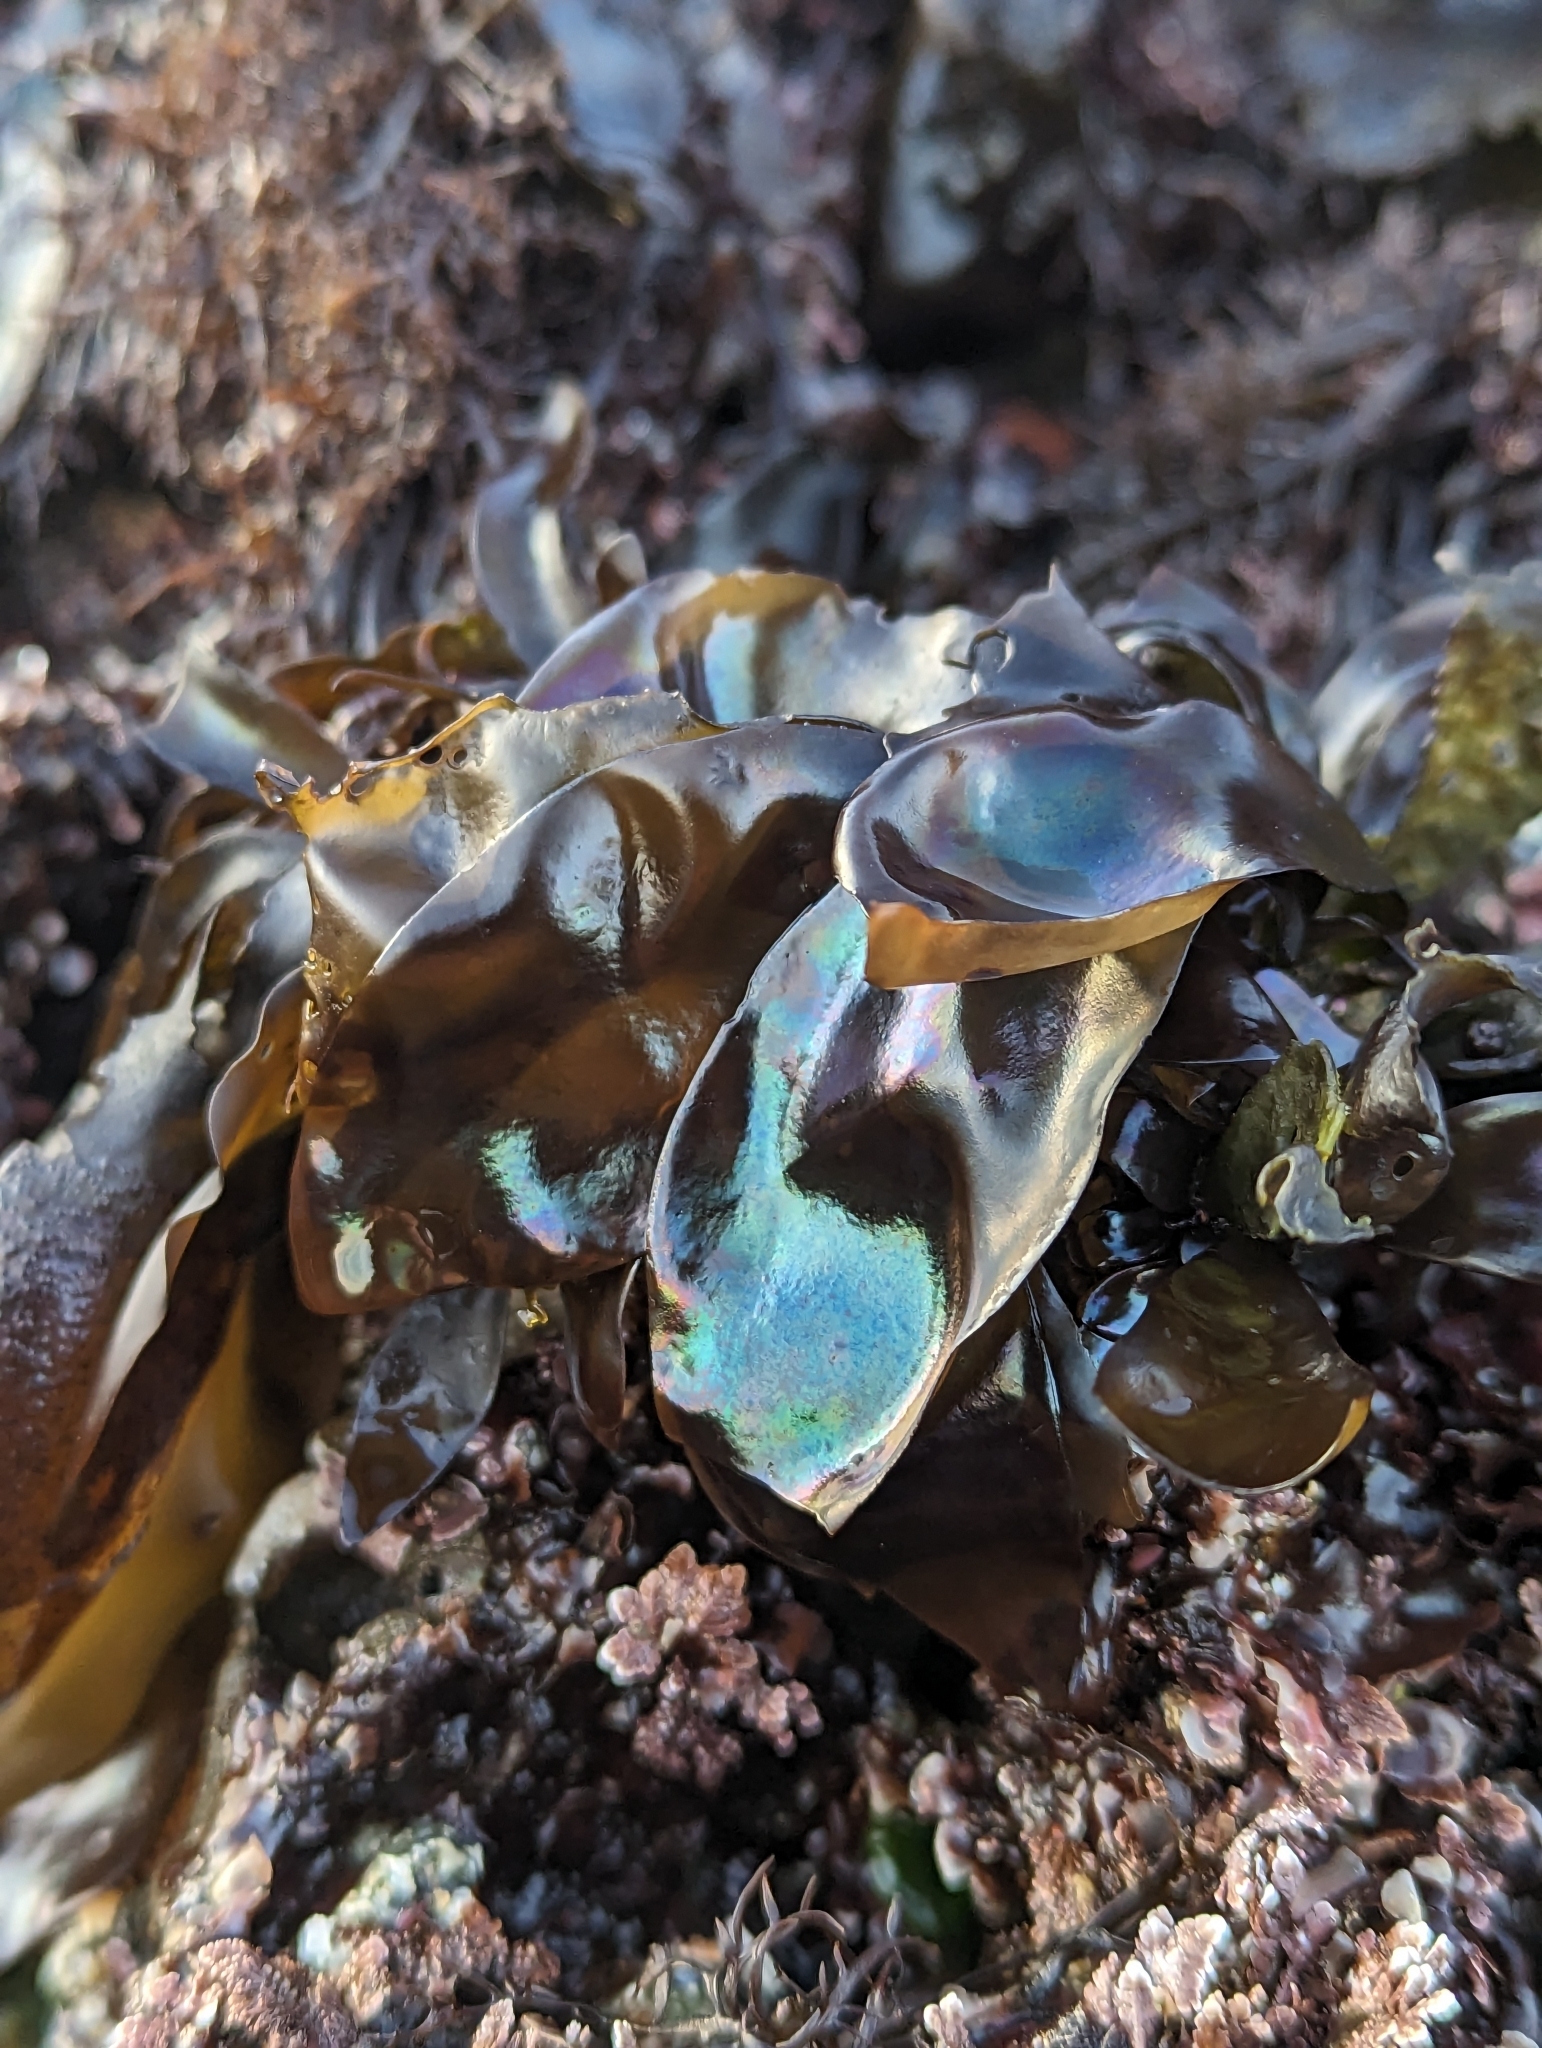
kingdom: Plantae
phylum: Rhodophyta
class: Florideophyceae
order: Gigartinales
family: Gigartinaceae
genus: Mazzaella
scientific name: Mazzaella flaccida
